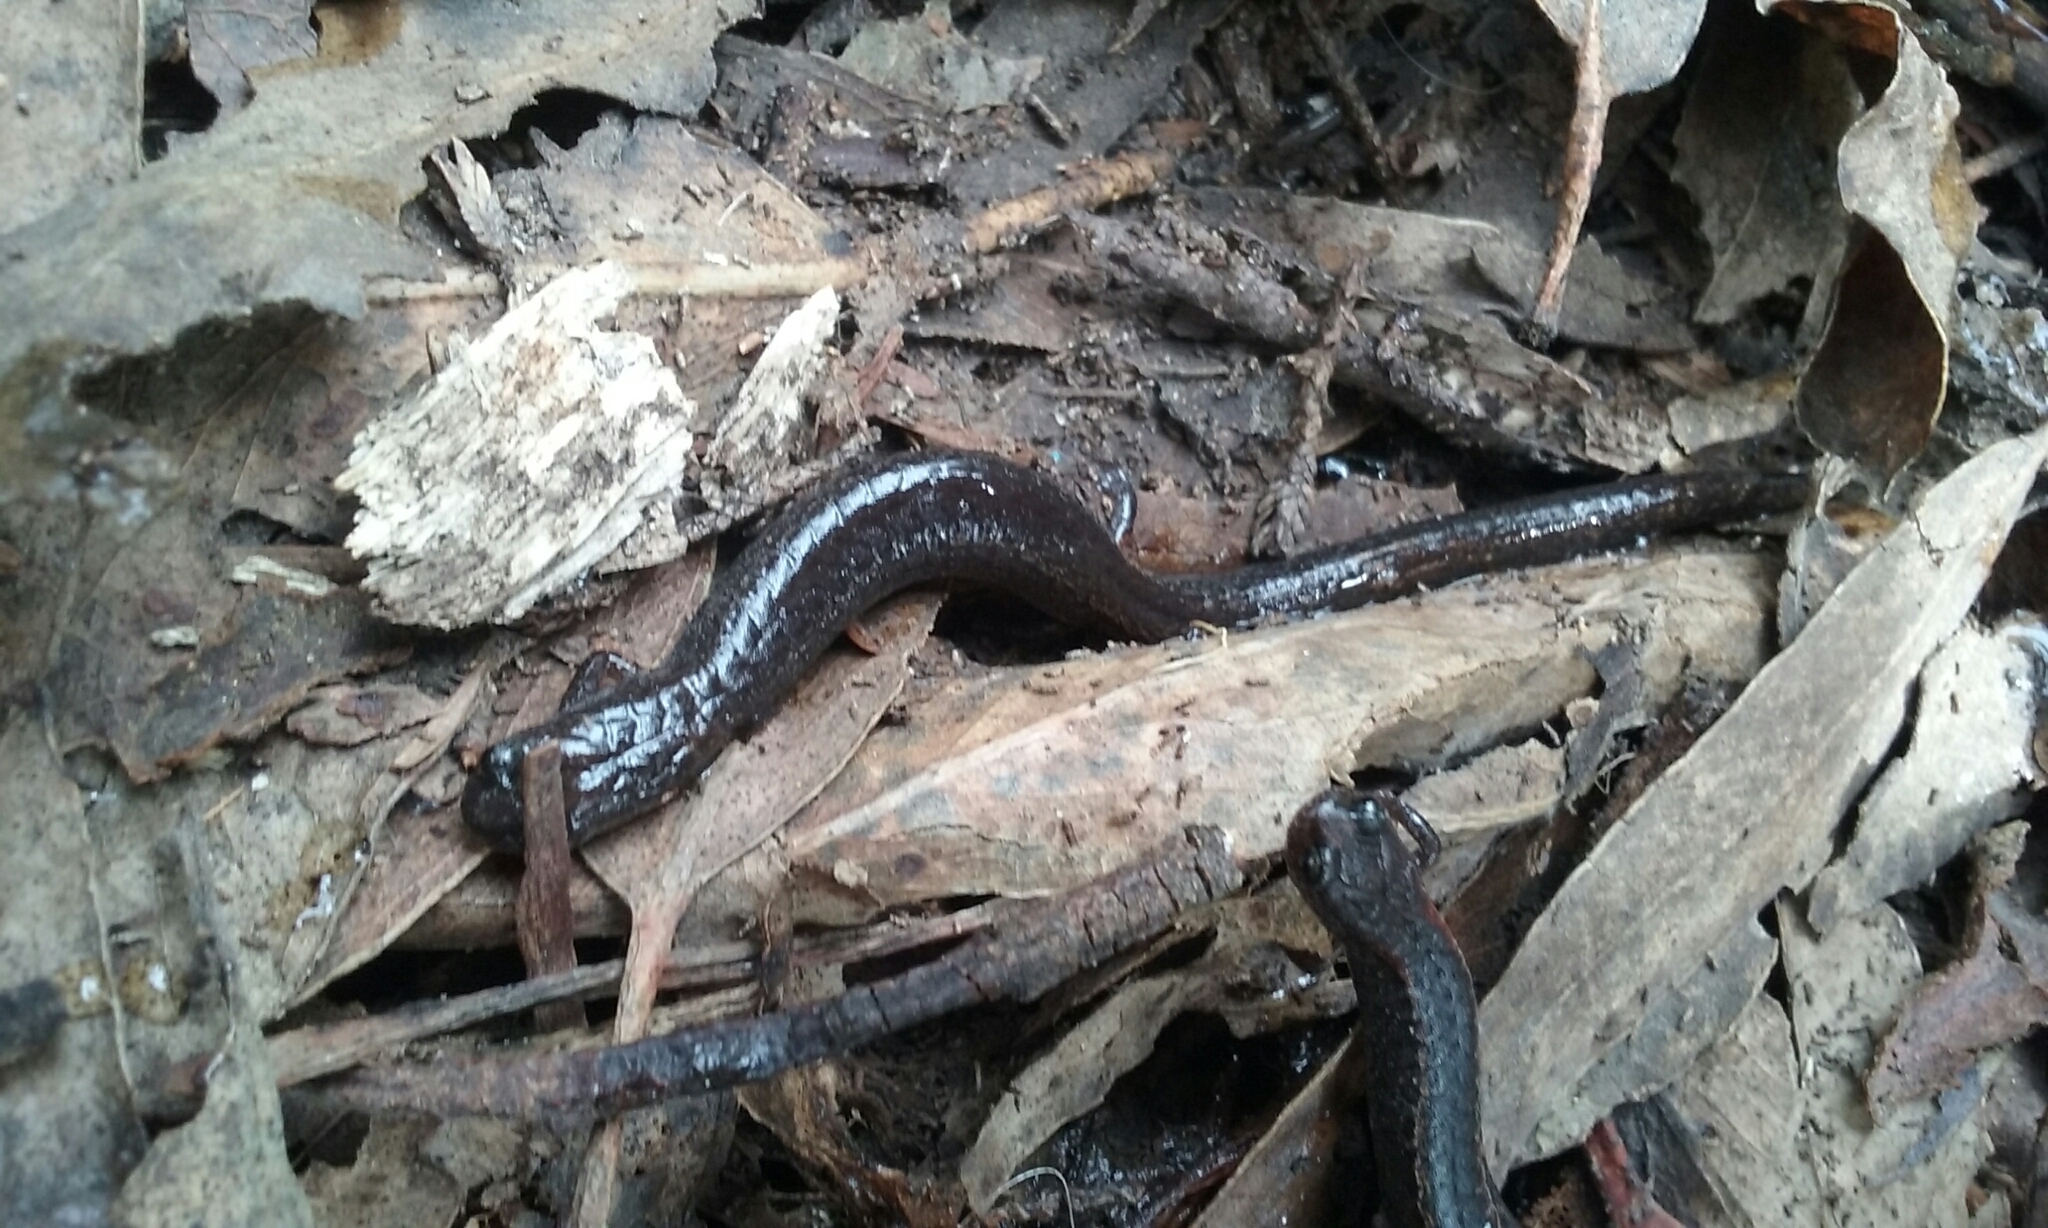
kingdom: Animalia
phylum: Chordata
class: Amphibia
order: Caudata
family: Plethodontidae
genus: Batrachoseps
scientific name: Batrachoseps attenuatus
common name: California slender salamander
